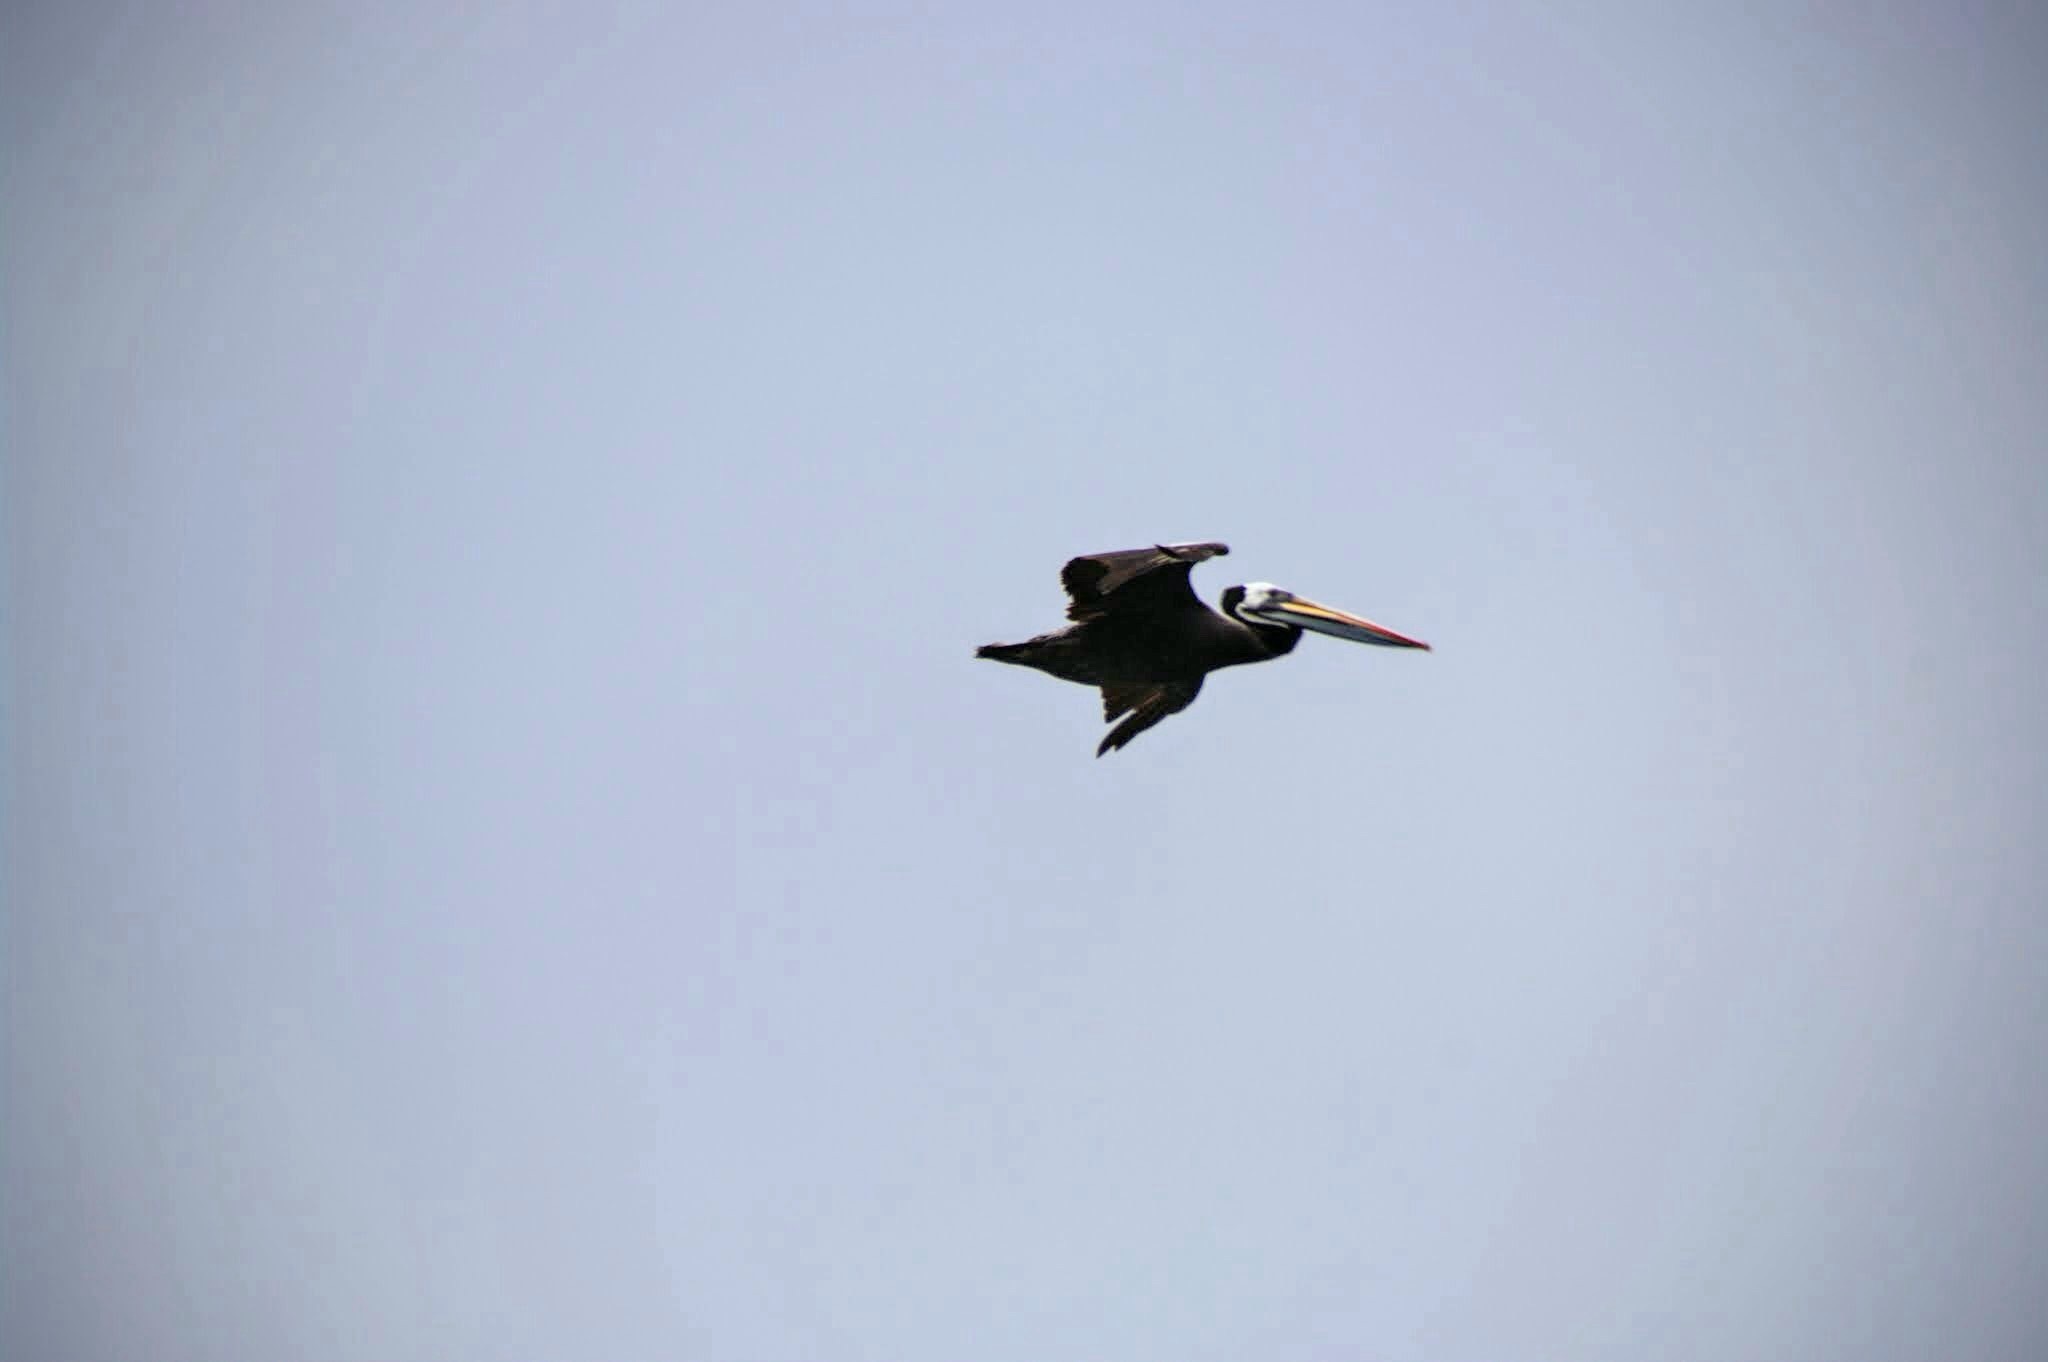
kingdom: Animalia
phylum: Chordata
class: Aves
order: Pelecaniformes
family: Pelecanidae
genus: Pelecanus
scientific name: Pelecanus thagus
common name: Peruvian pelican
